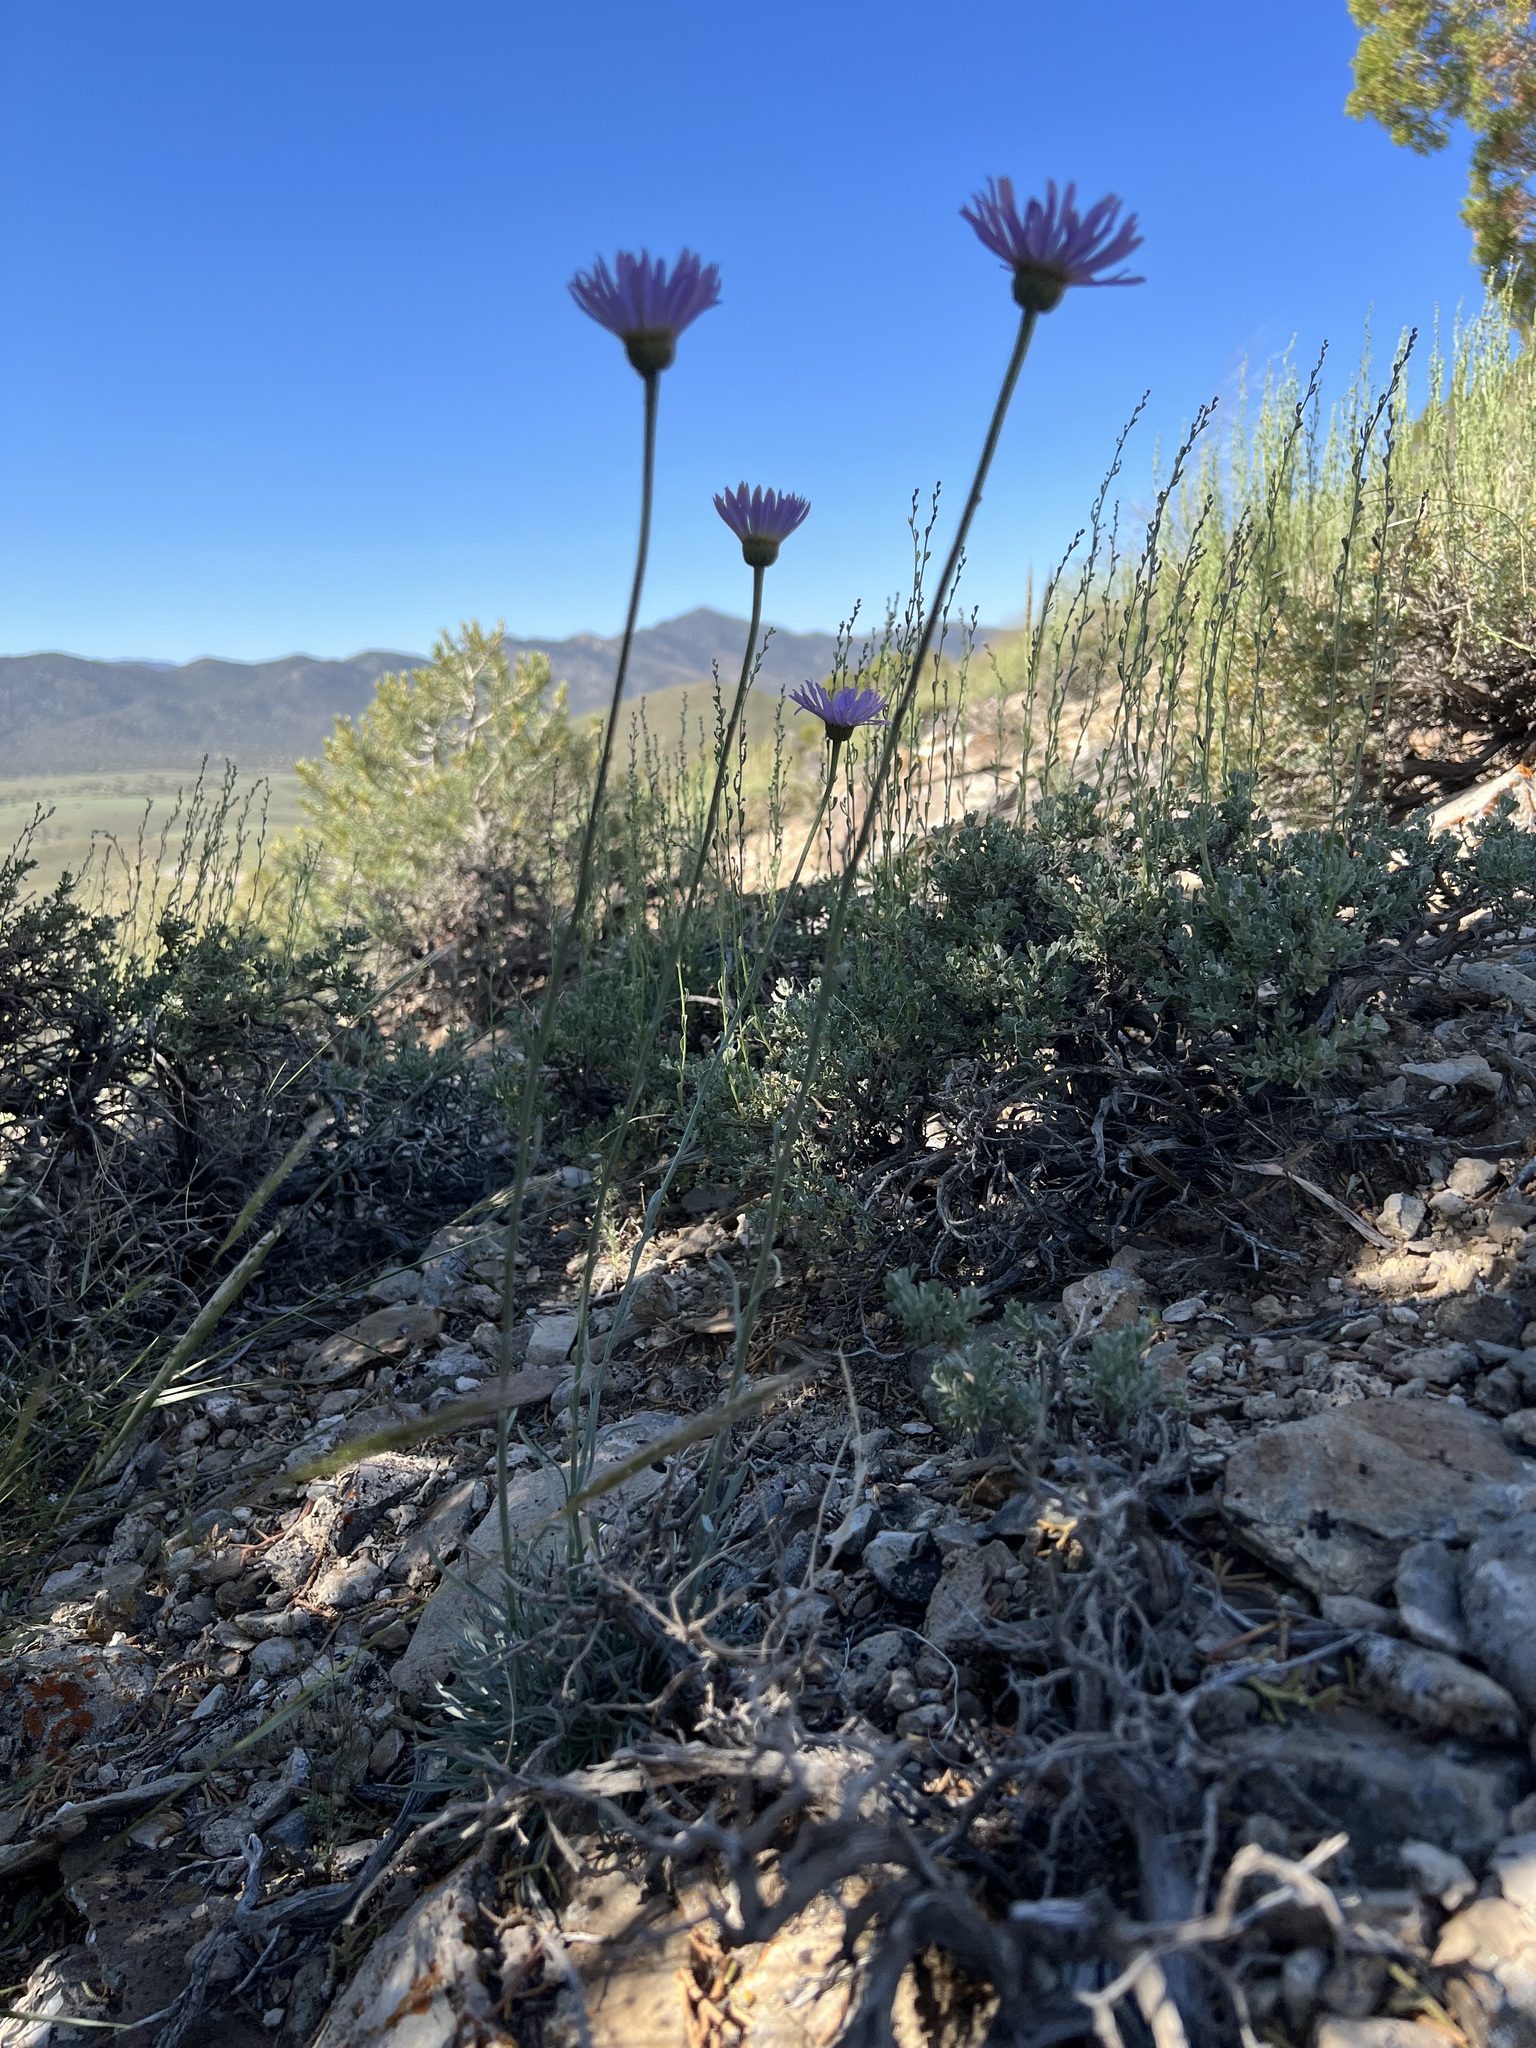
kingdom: Plantae
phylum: Tracheophyta
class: Magnoliopsida
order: Asterales
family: Asteraceae
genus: Erigeron
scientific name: Erigeron argentatus
